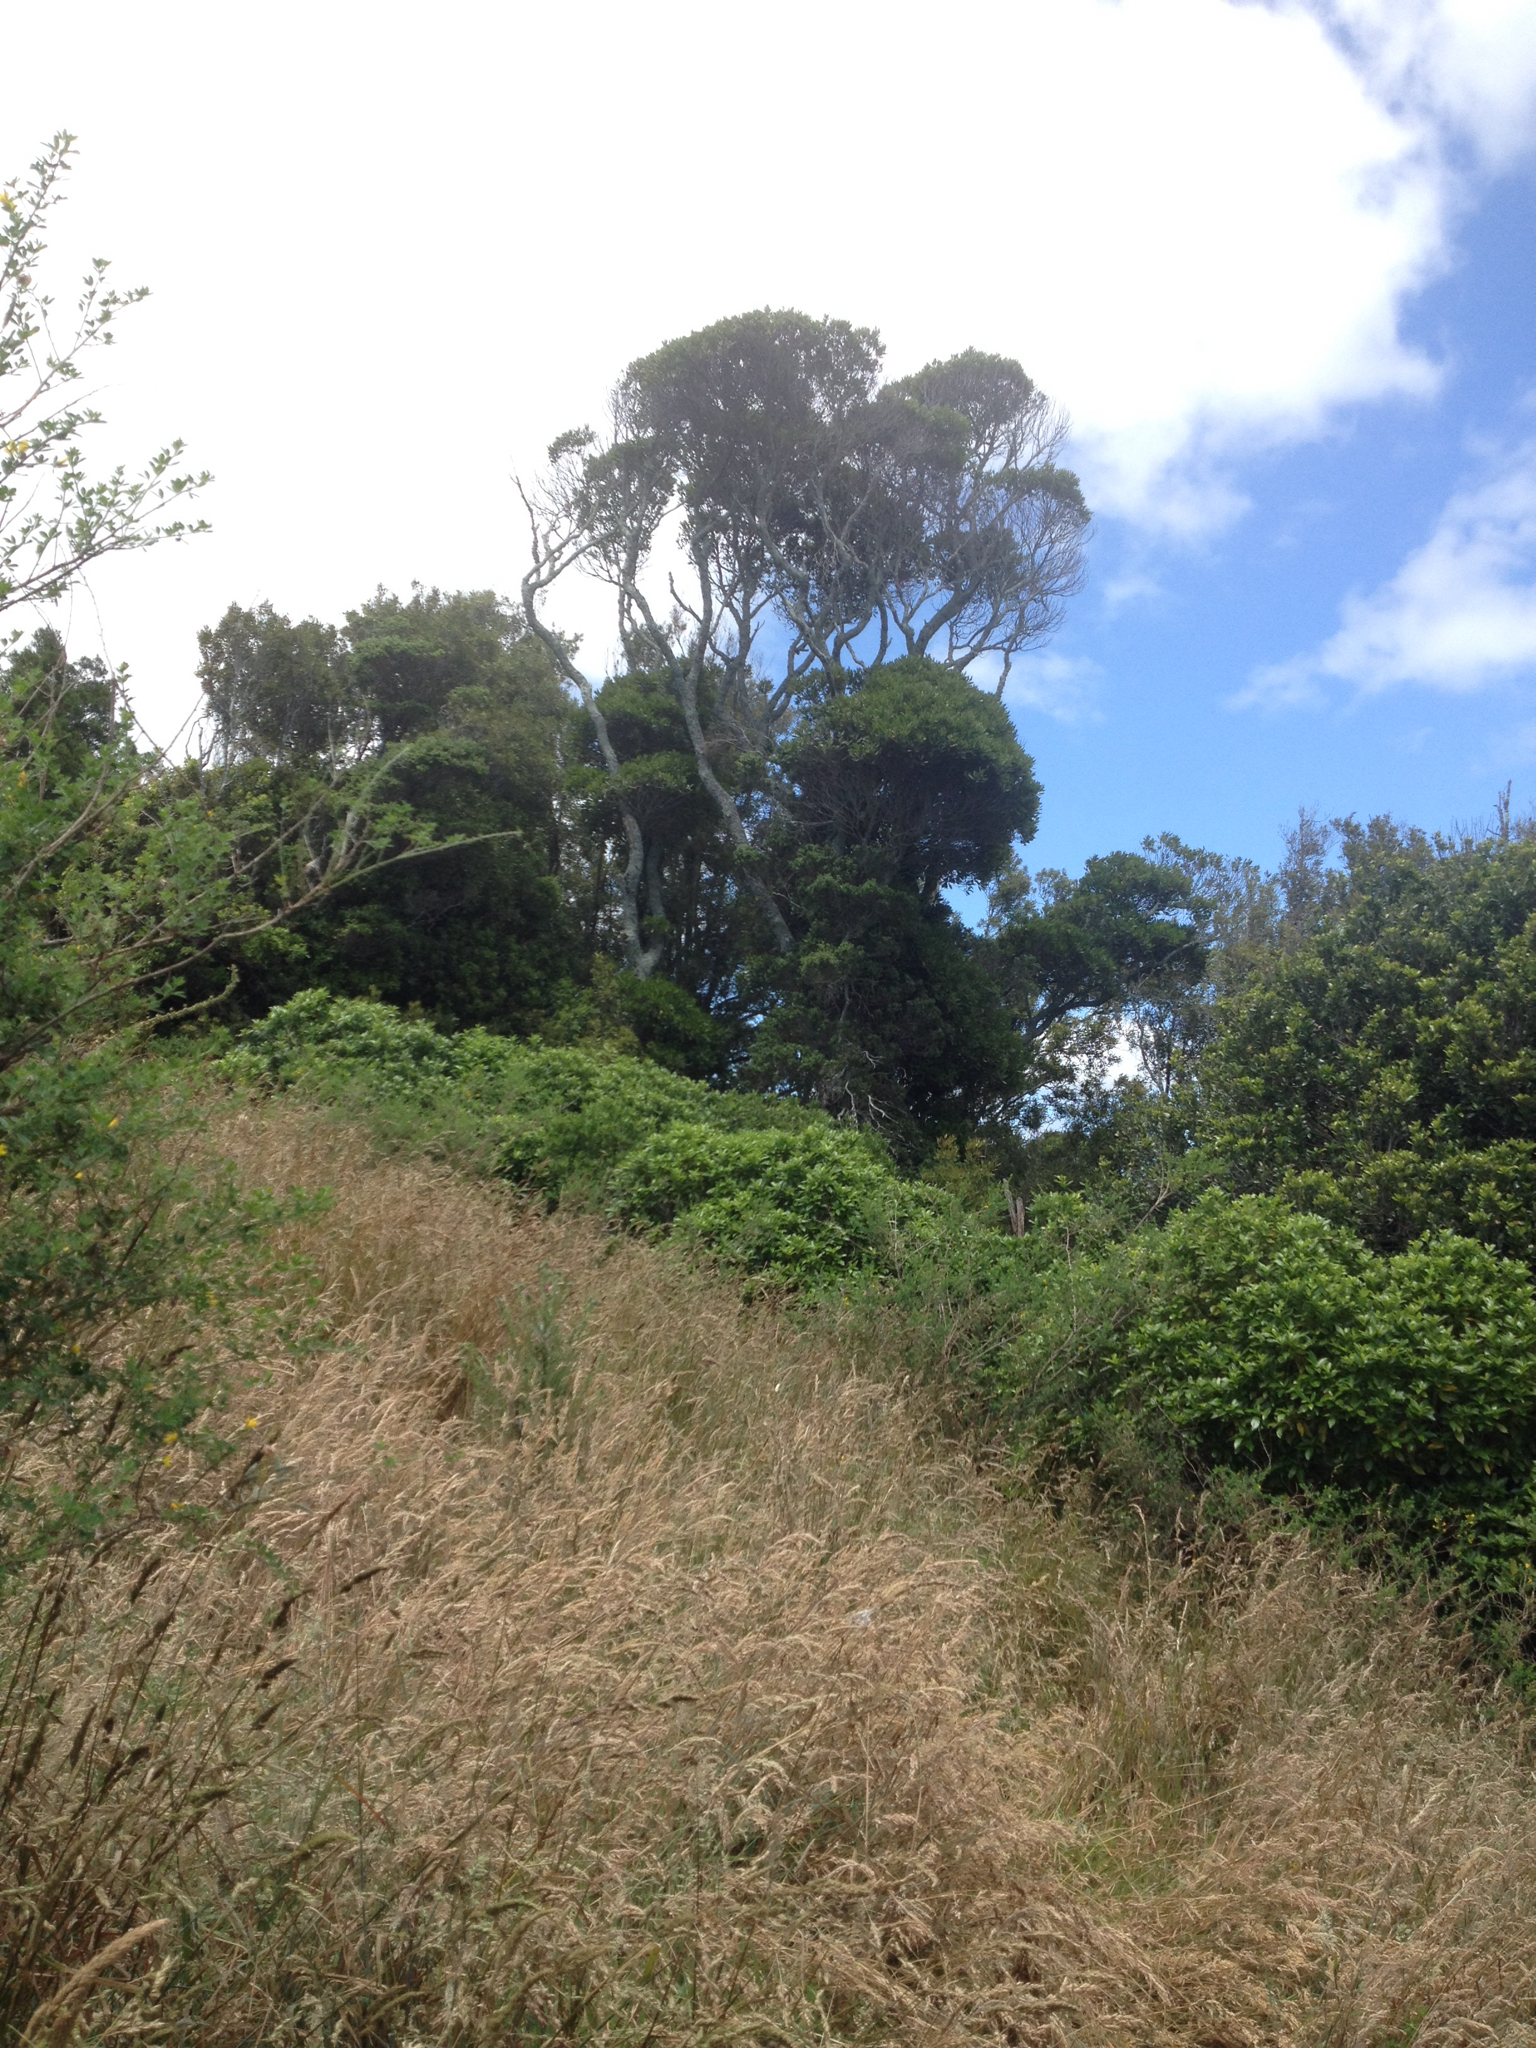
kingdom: Plantae
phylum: Tracheophyta
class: Magnoliopsida
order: Oxalidales
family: Elaeocarpaceae
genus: Elaeocarpus
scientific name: Elaeocarpus dentatus
